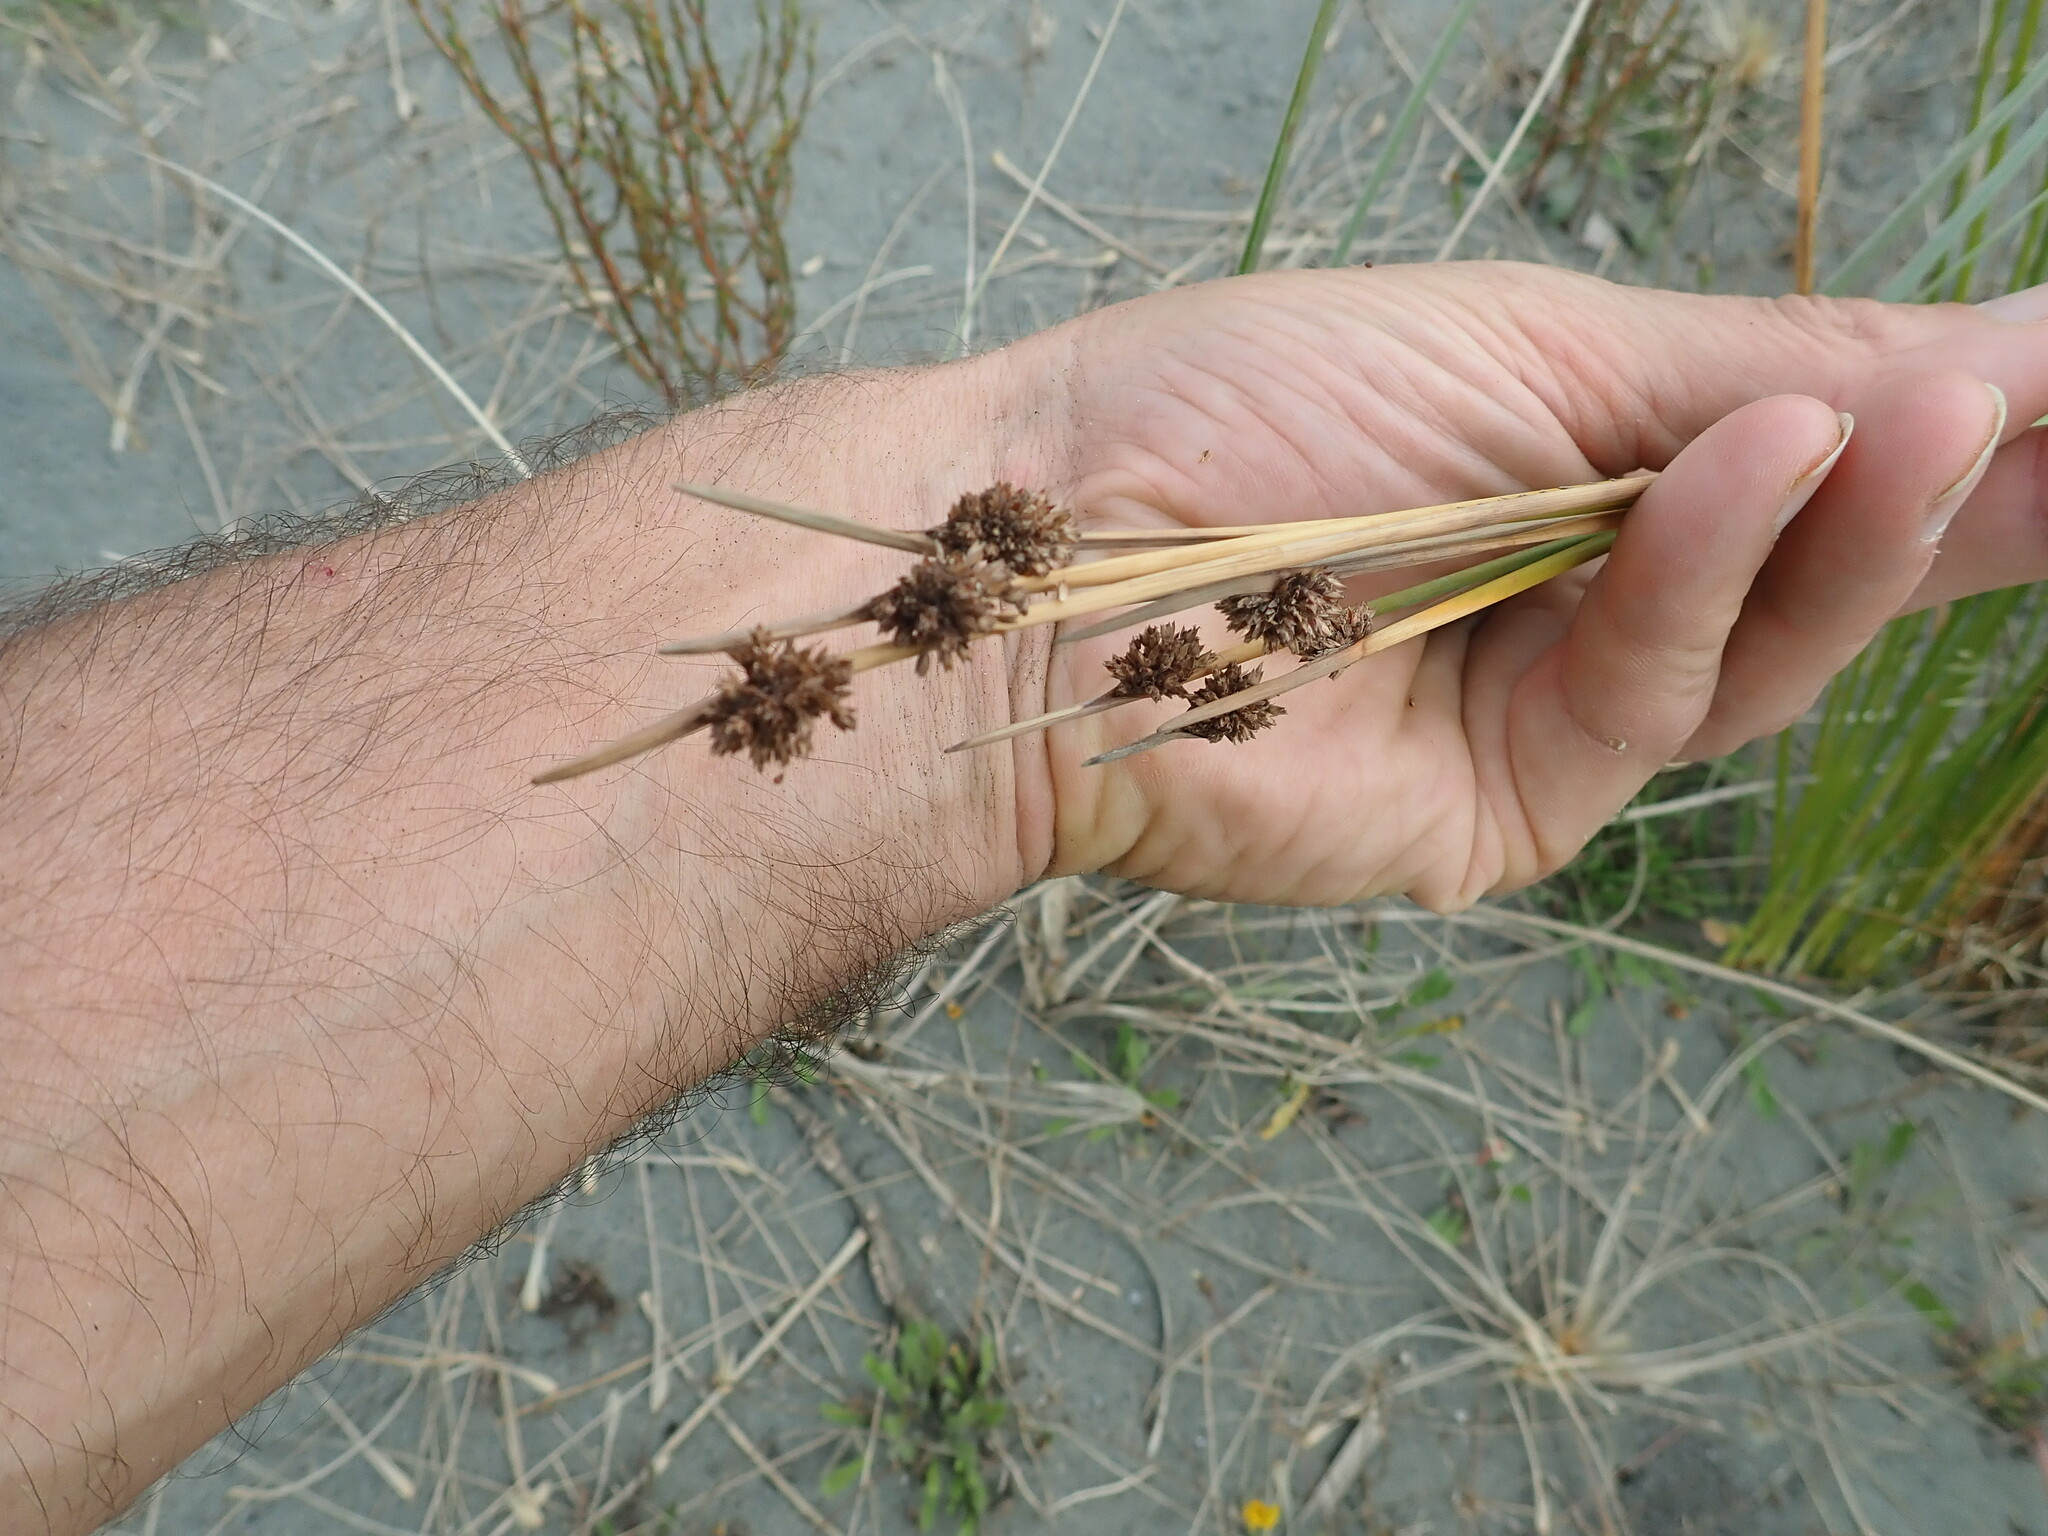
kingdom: Plantae
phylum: Tracheophyta
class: Liliopsida
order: Poales
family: Cyperaceae
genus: Ficinia
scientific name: Ficinia nodosa
